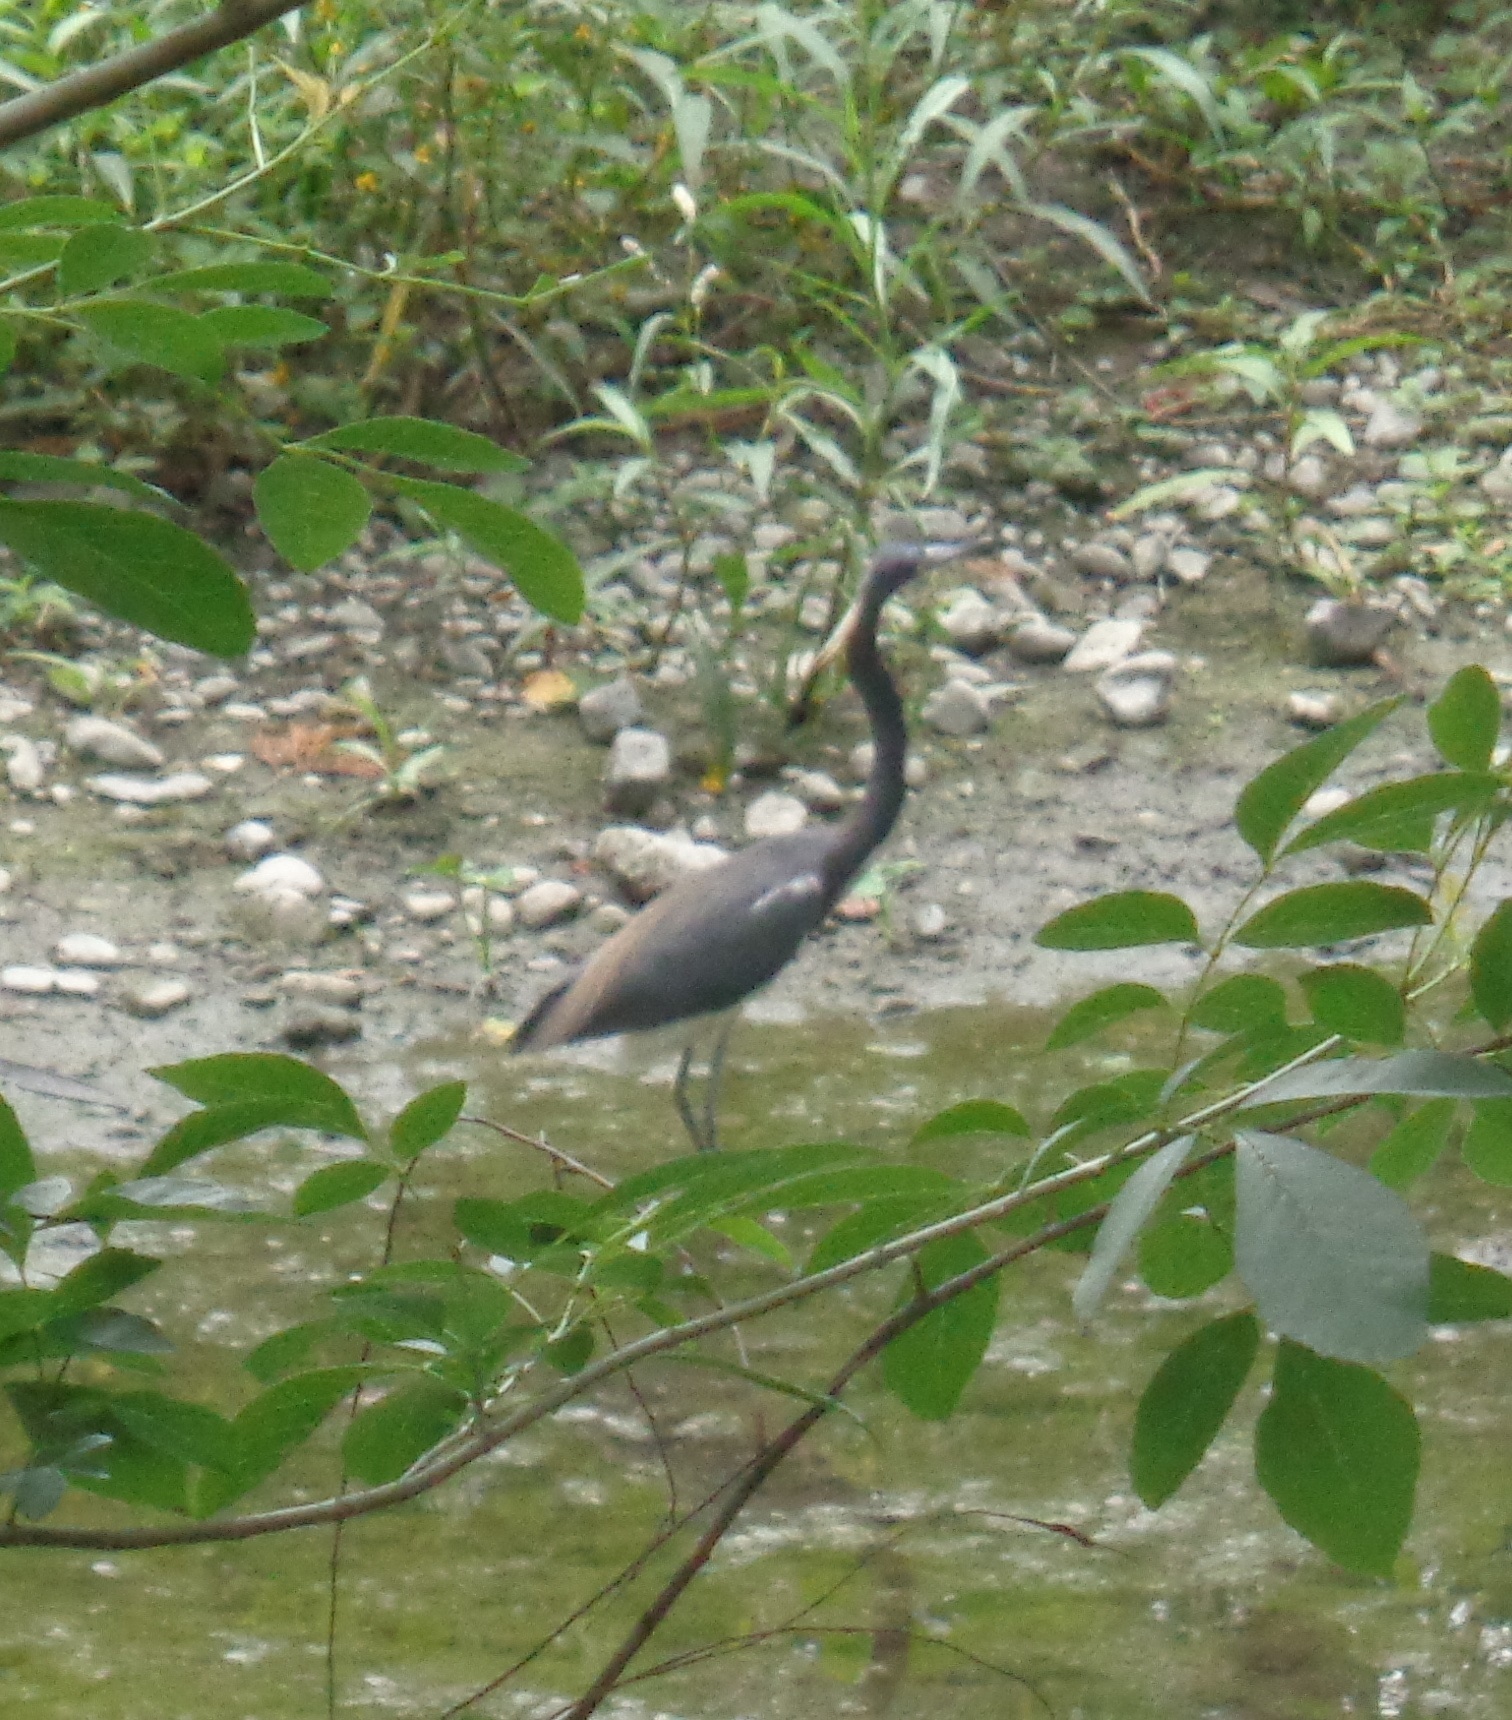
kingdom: Animalia
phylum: Chordata
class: Aves
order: Pelecaniformes
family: Ardeidae
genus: Egretta
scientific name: Egretta tricolor
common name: Tricolored heron
